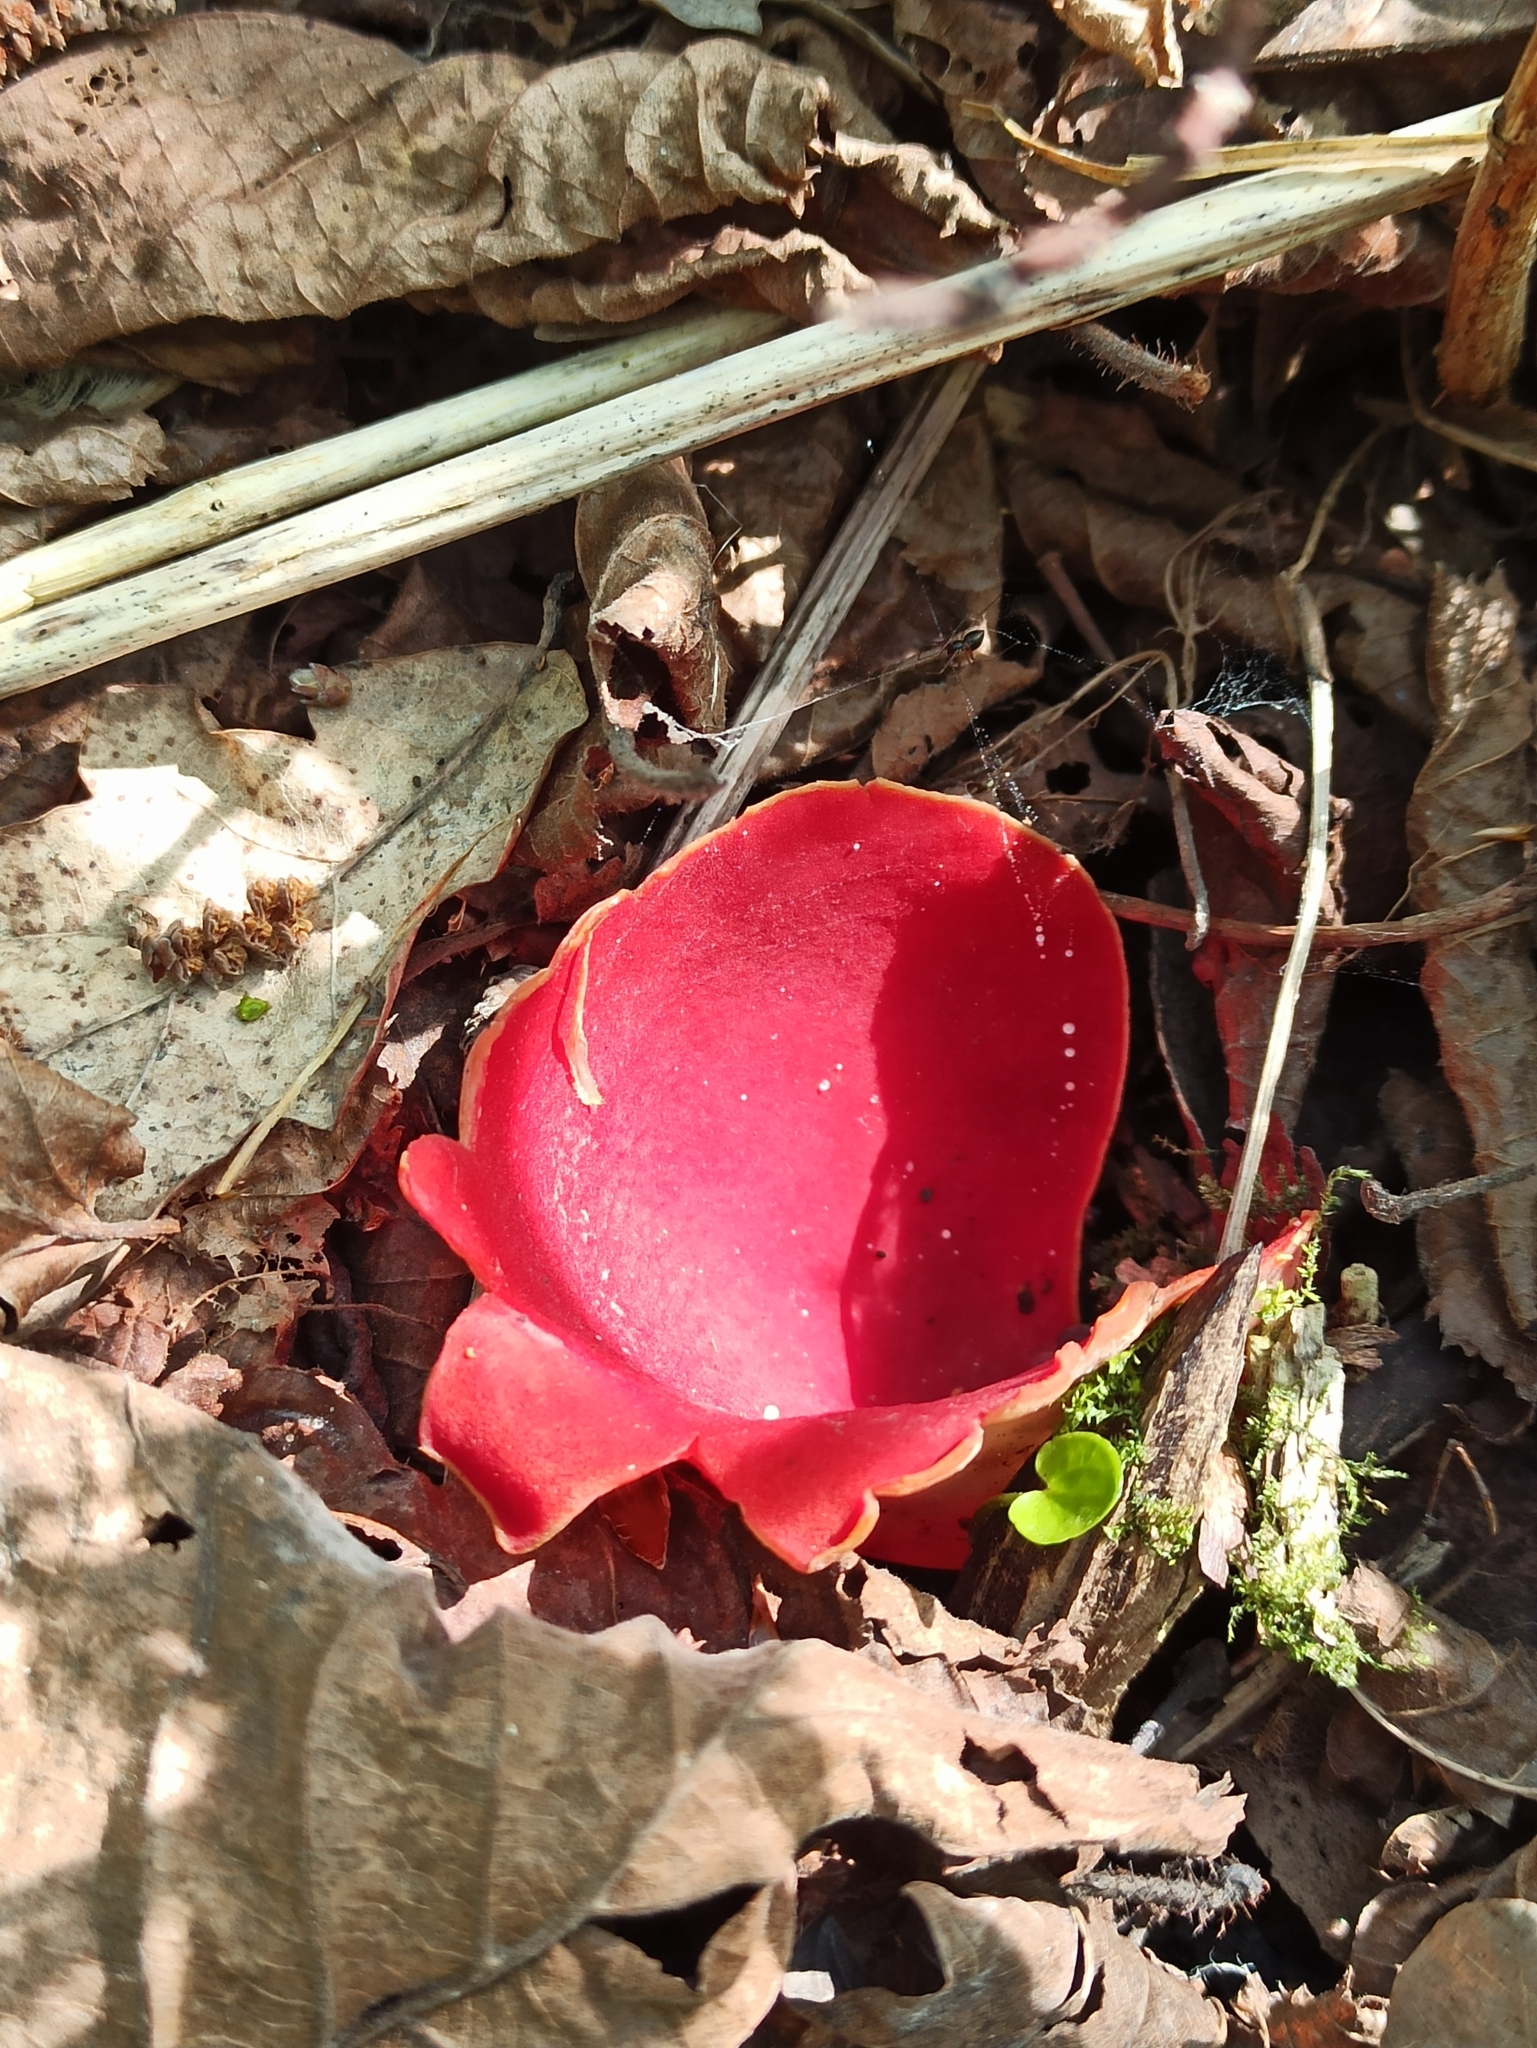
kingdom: Fungi
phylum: Ascomycota
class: Pezizomycetes
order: Pezizales
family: Sarcoscyphaceae
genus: Sarcoscypha
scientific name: Sarcoscypha
